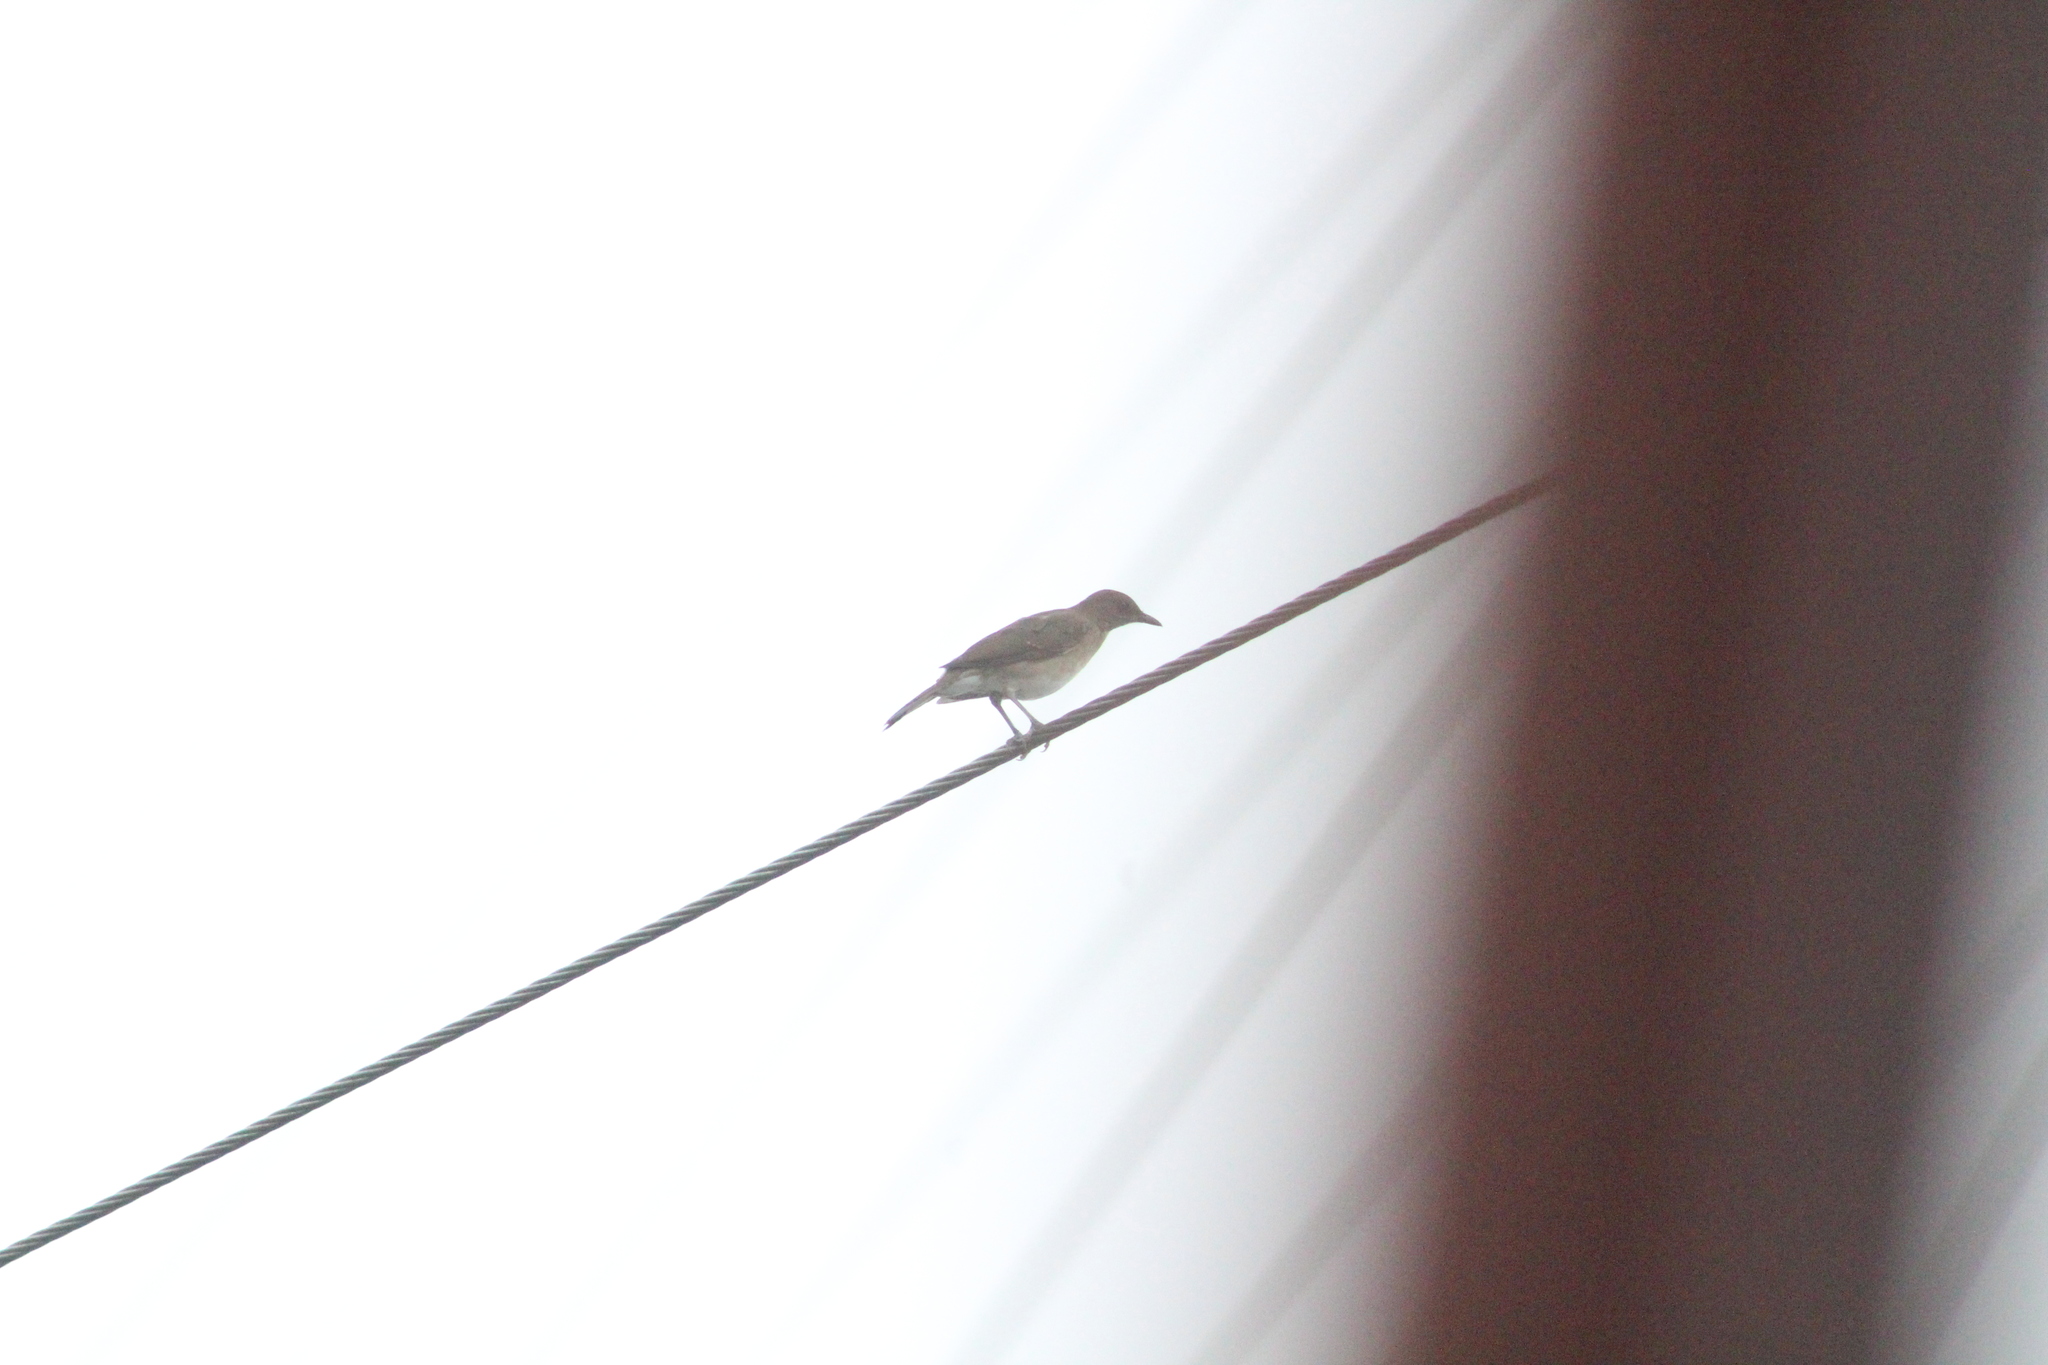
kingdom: Animalia
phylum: Chordata
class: Aves
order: Passeriformes
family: Turdidae
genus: Turdus
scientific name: Turdus ignobilis
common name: Black-billed thrush
